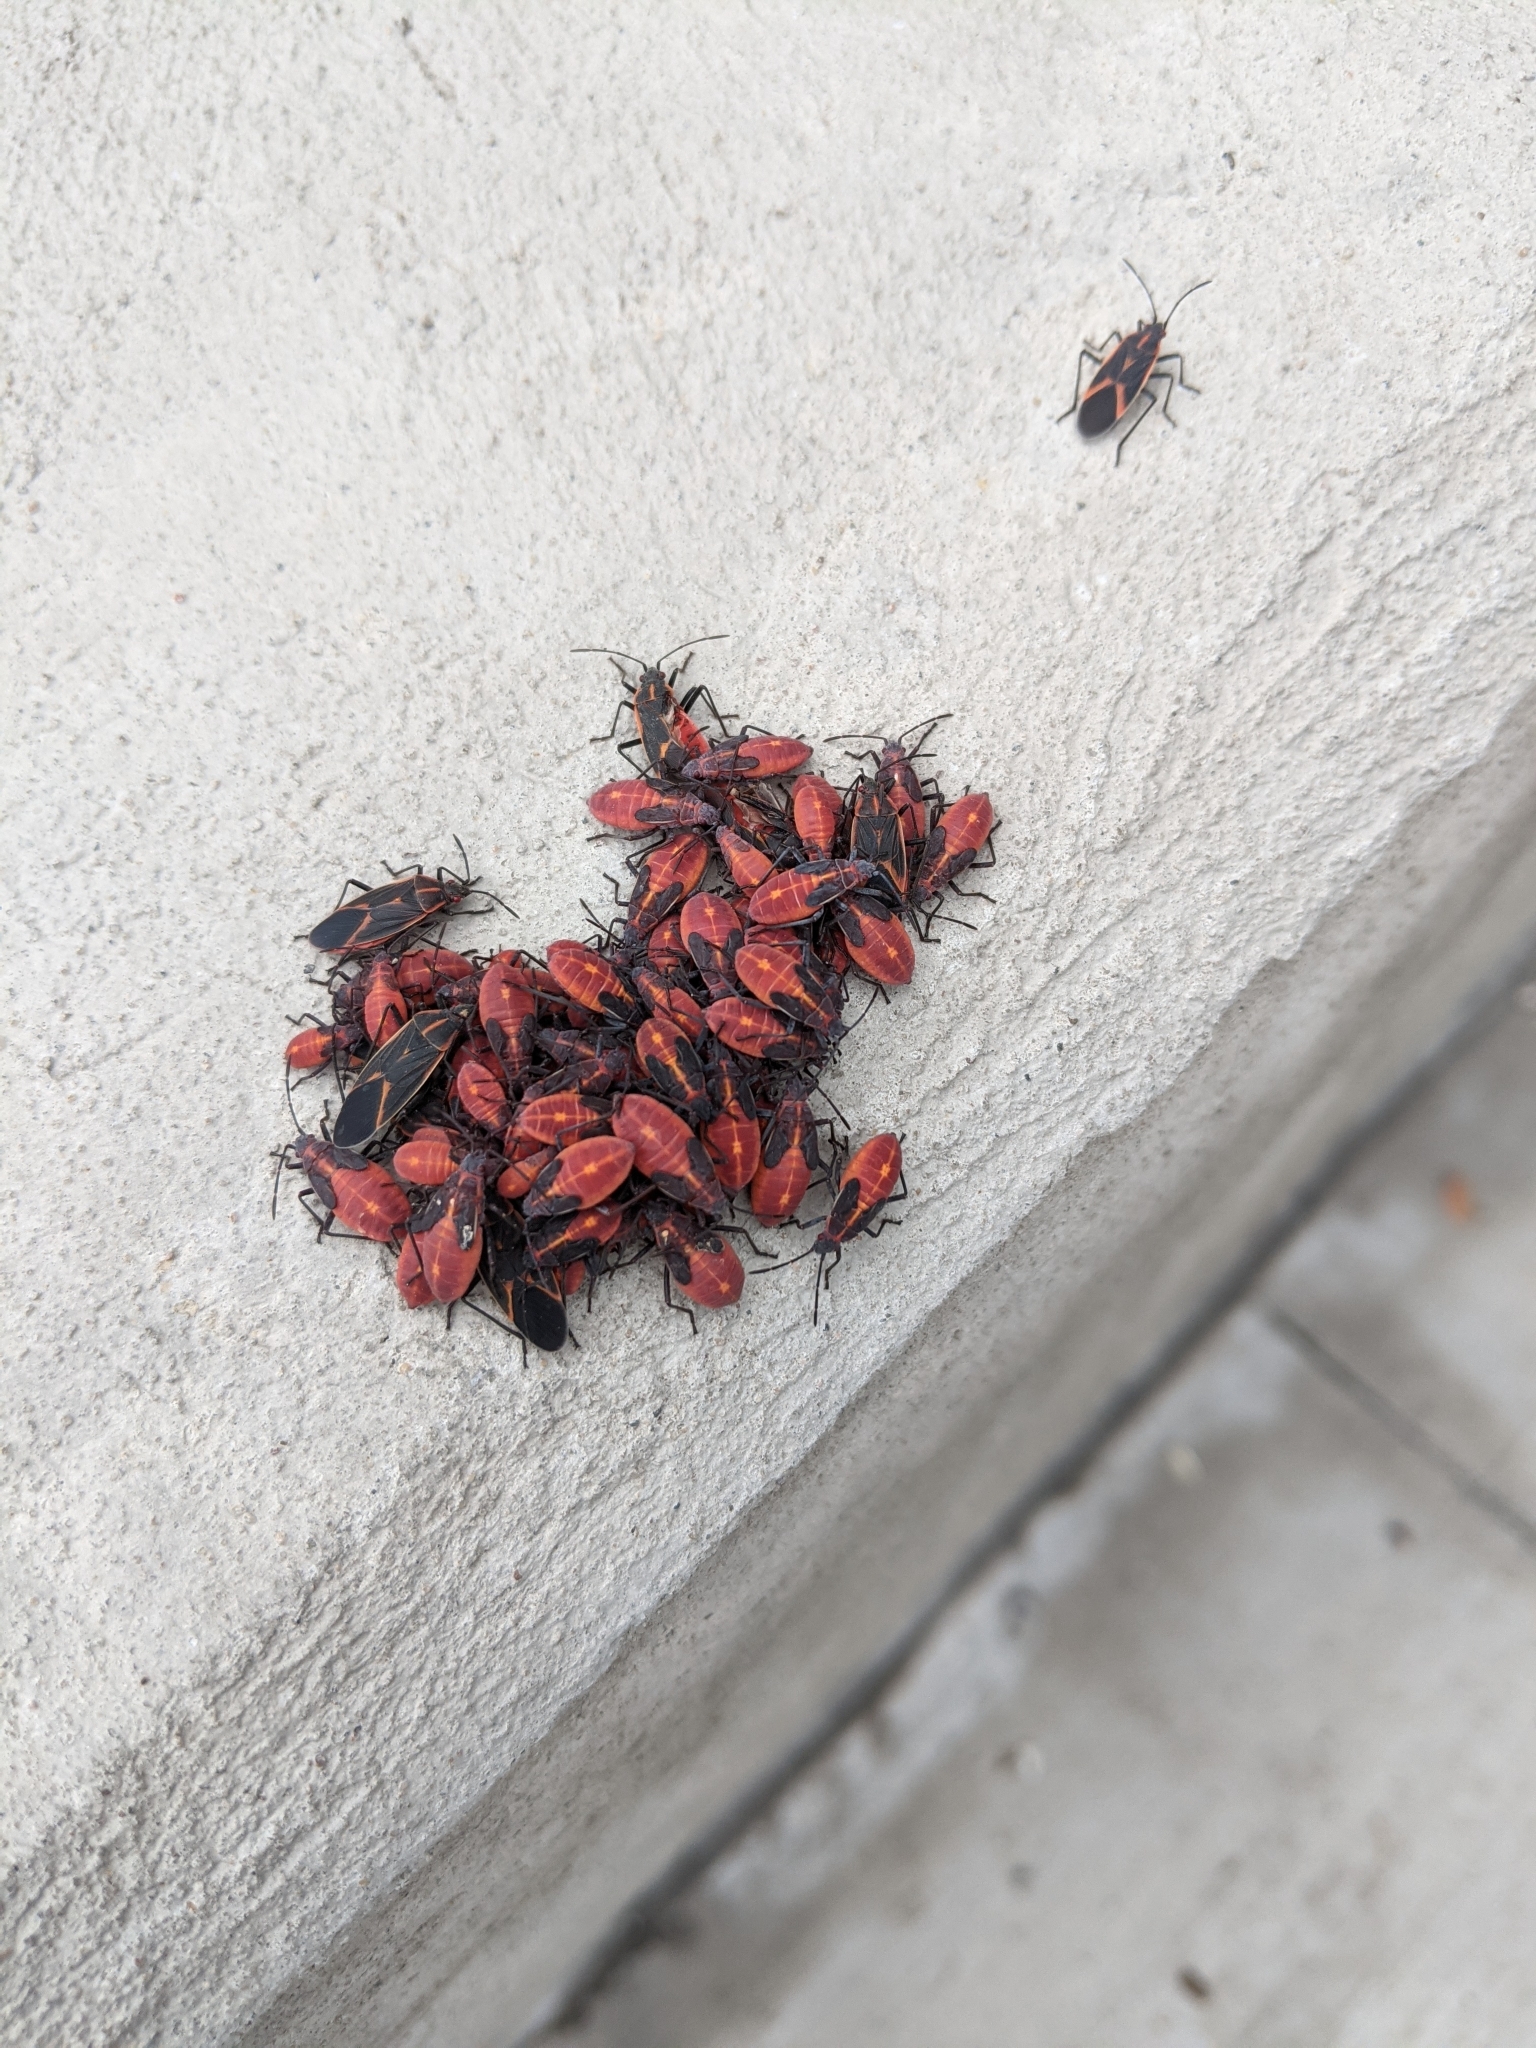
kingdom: Animalia
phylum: Arthropoda
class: Insecta
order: Hemiptera
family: Rhopalidae
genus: Boisea
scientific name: Boisea trivittata
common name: Boxelder bug
